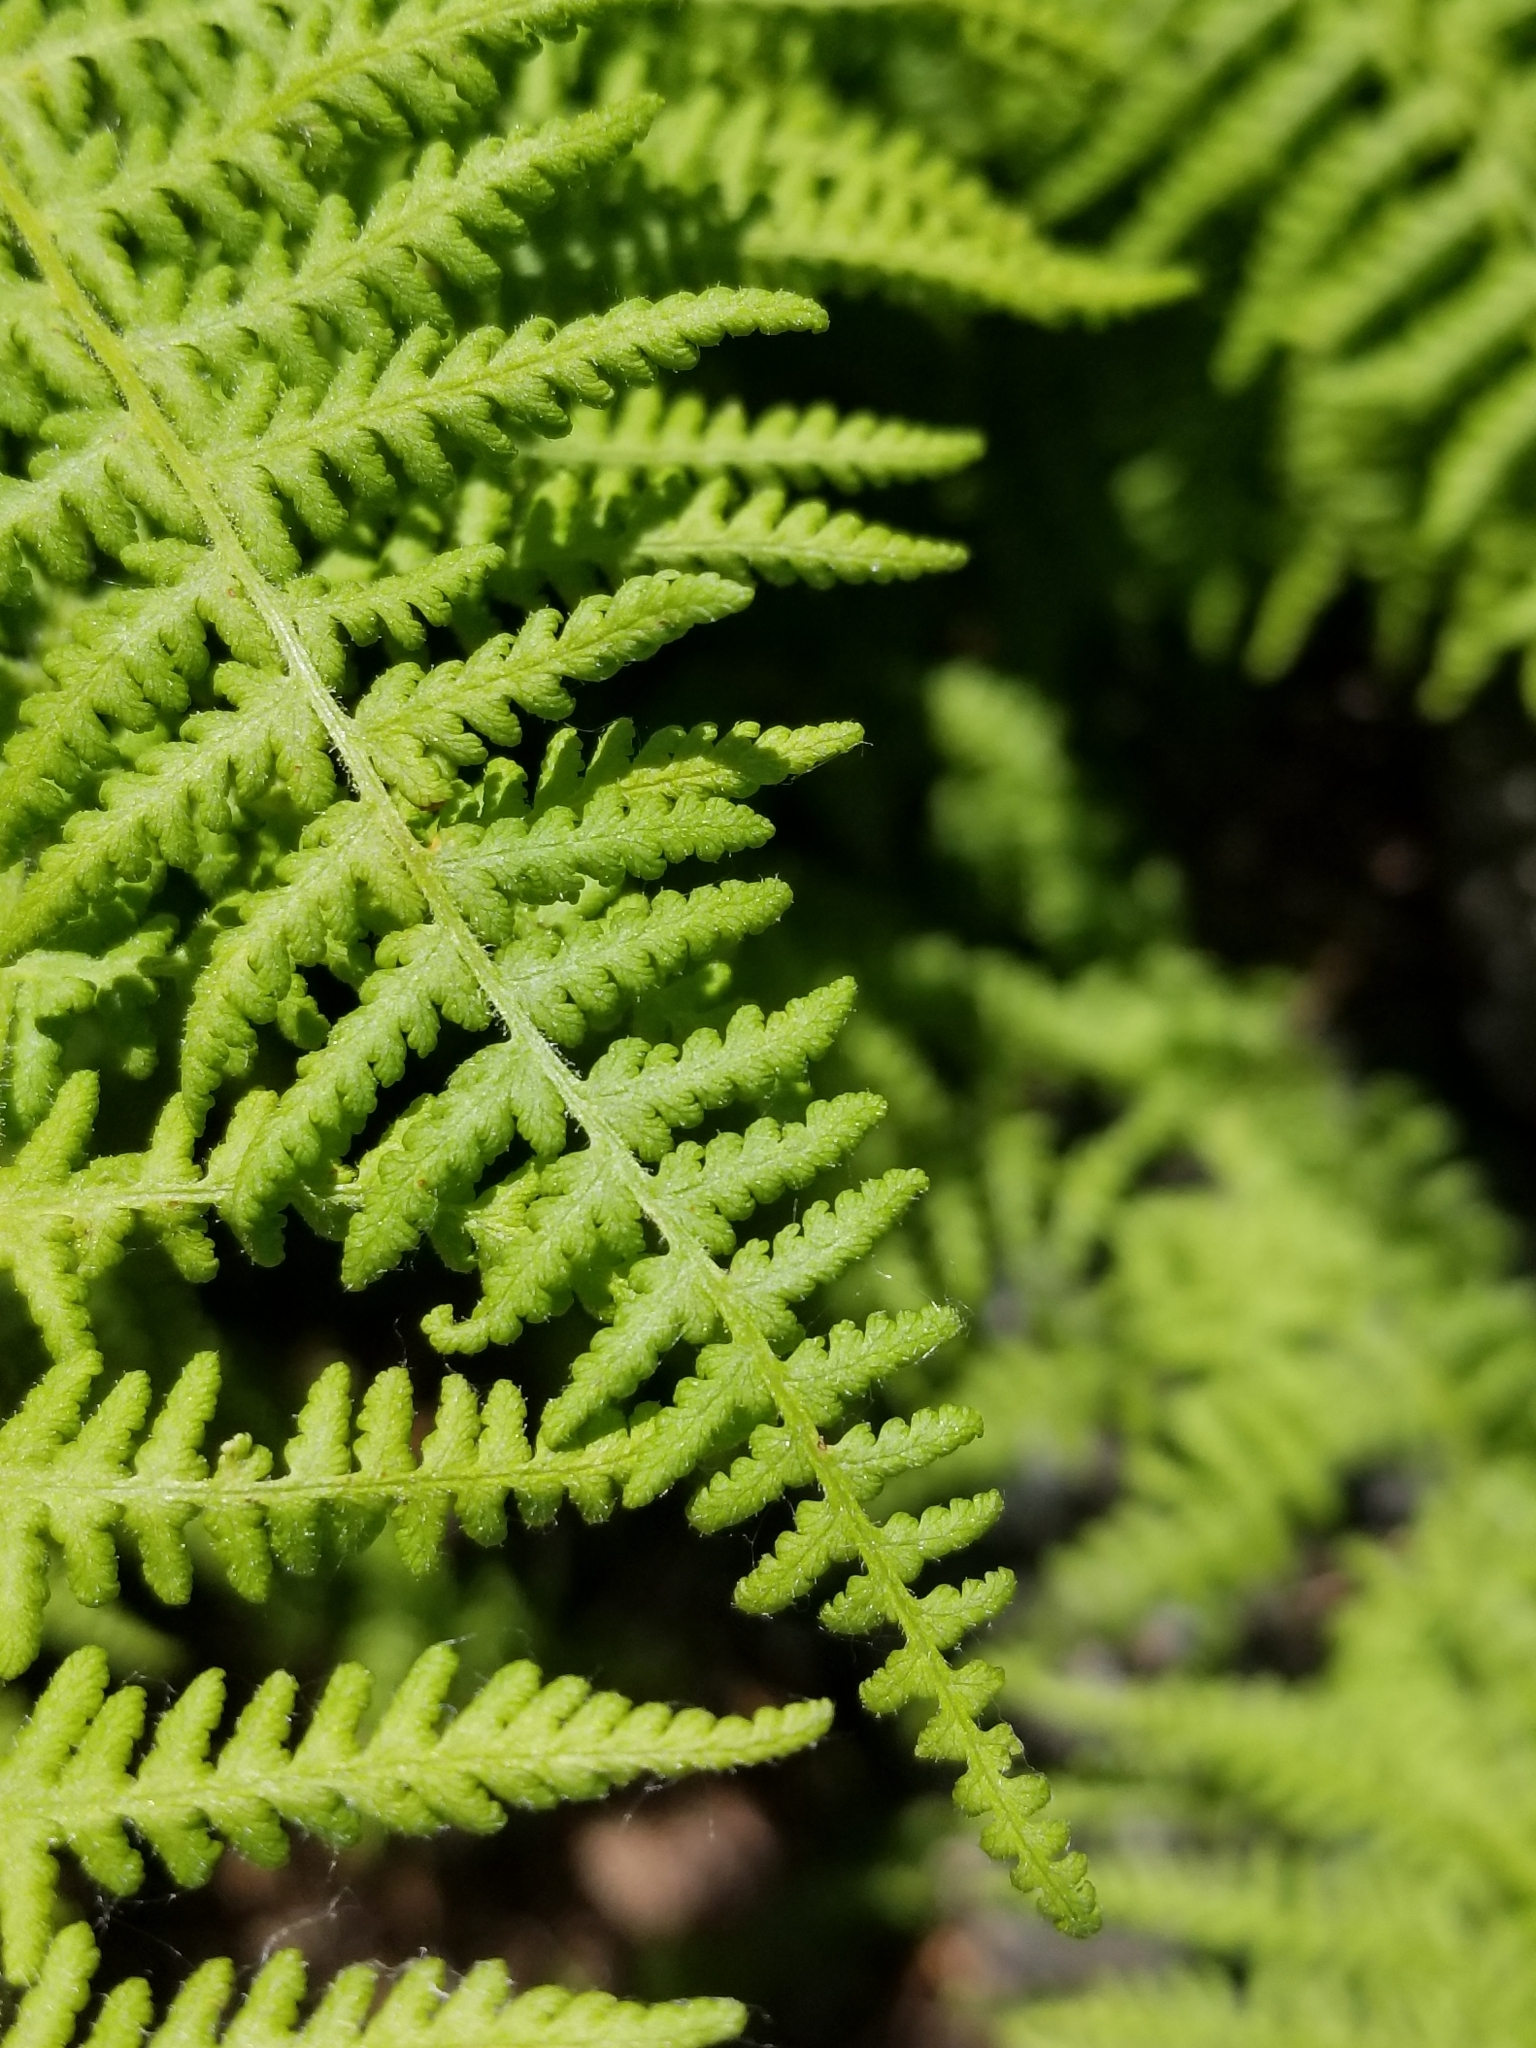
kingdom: Plantae
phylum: Tracheophyta
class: Polypodiopsida
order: Polypodiales
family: Dennstaedtiaceae
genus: Sitobolium
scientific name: Sitobolium punctilobum
